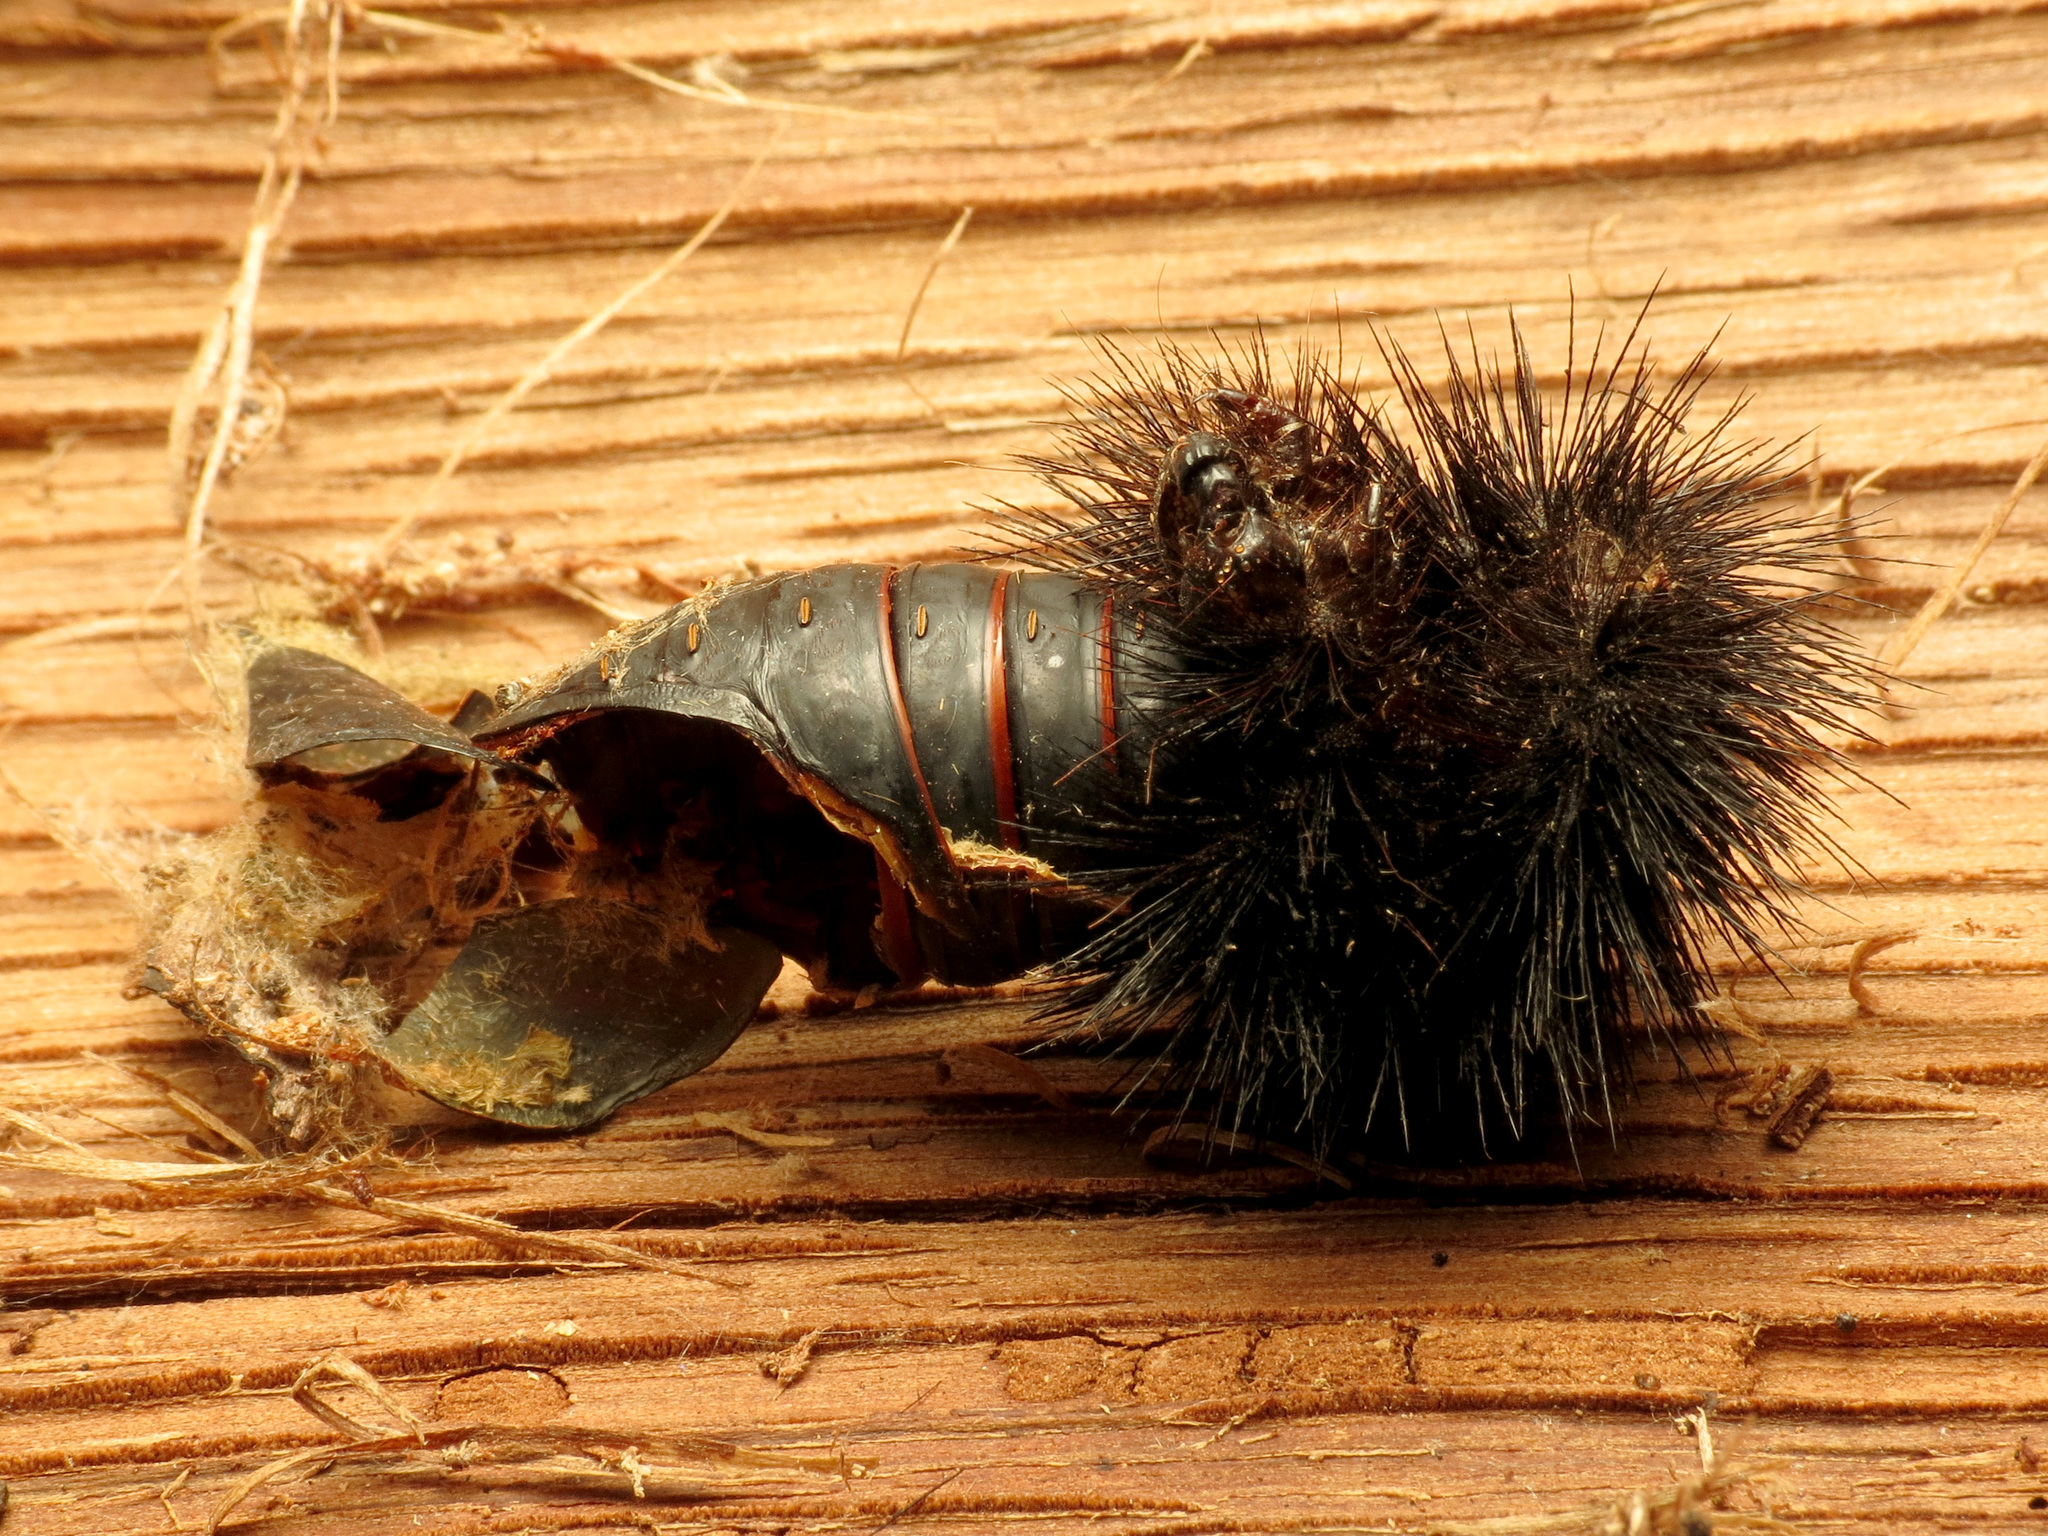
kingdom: Animalia
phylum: Arthropoda
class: Insecta
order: Lepidoptera
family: Erebidae
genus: Hypercompe
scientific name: Hypercompe scribonia
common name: Giant leopard moth
